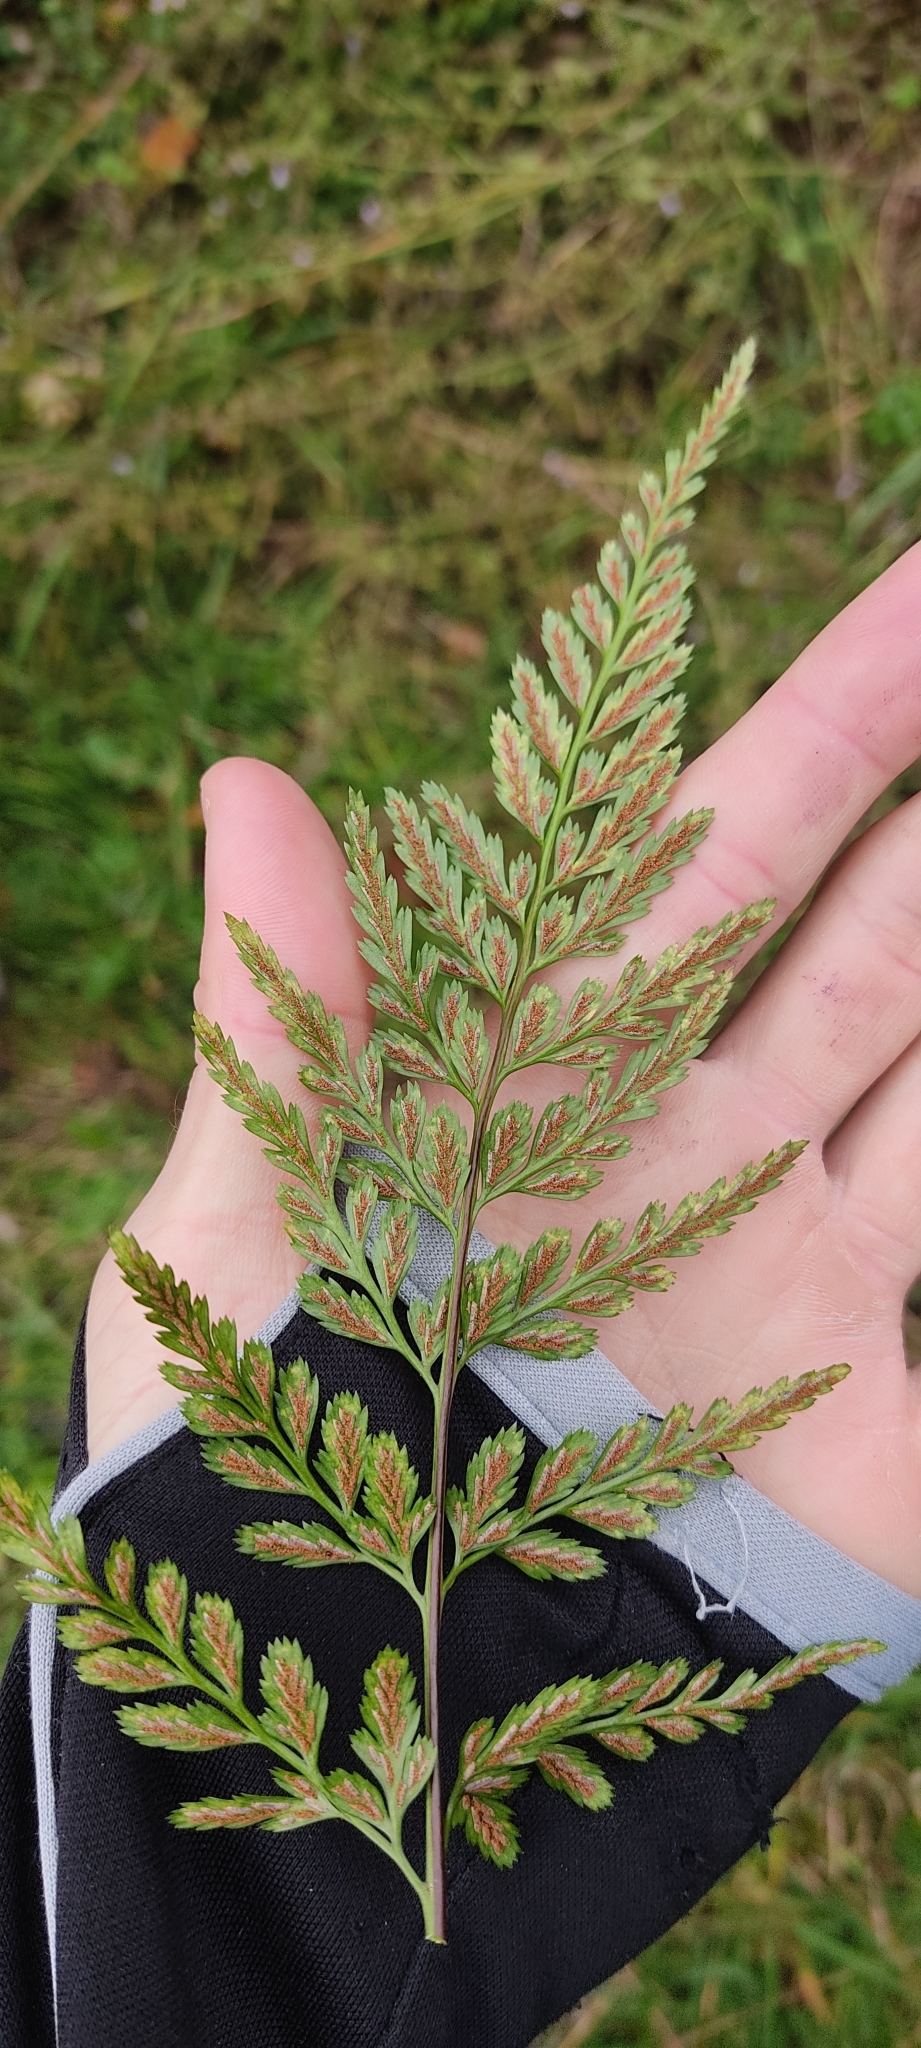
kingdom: Plantae
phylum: Tracheophyta
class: Polypodiopsida
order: Polypodiales
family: Aspleniaceae
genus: Asplenium
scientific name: Asplenium adiantum-nigrum
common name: Black spleenwort
